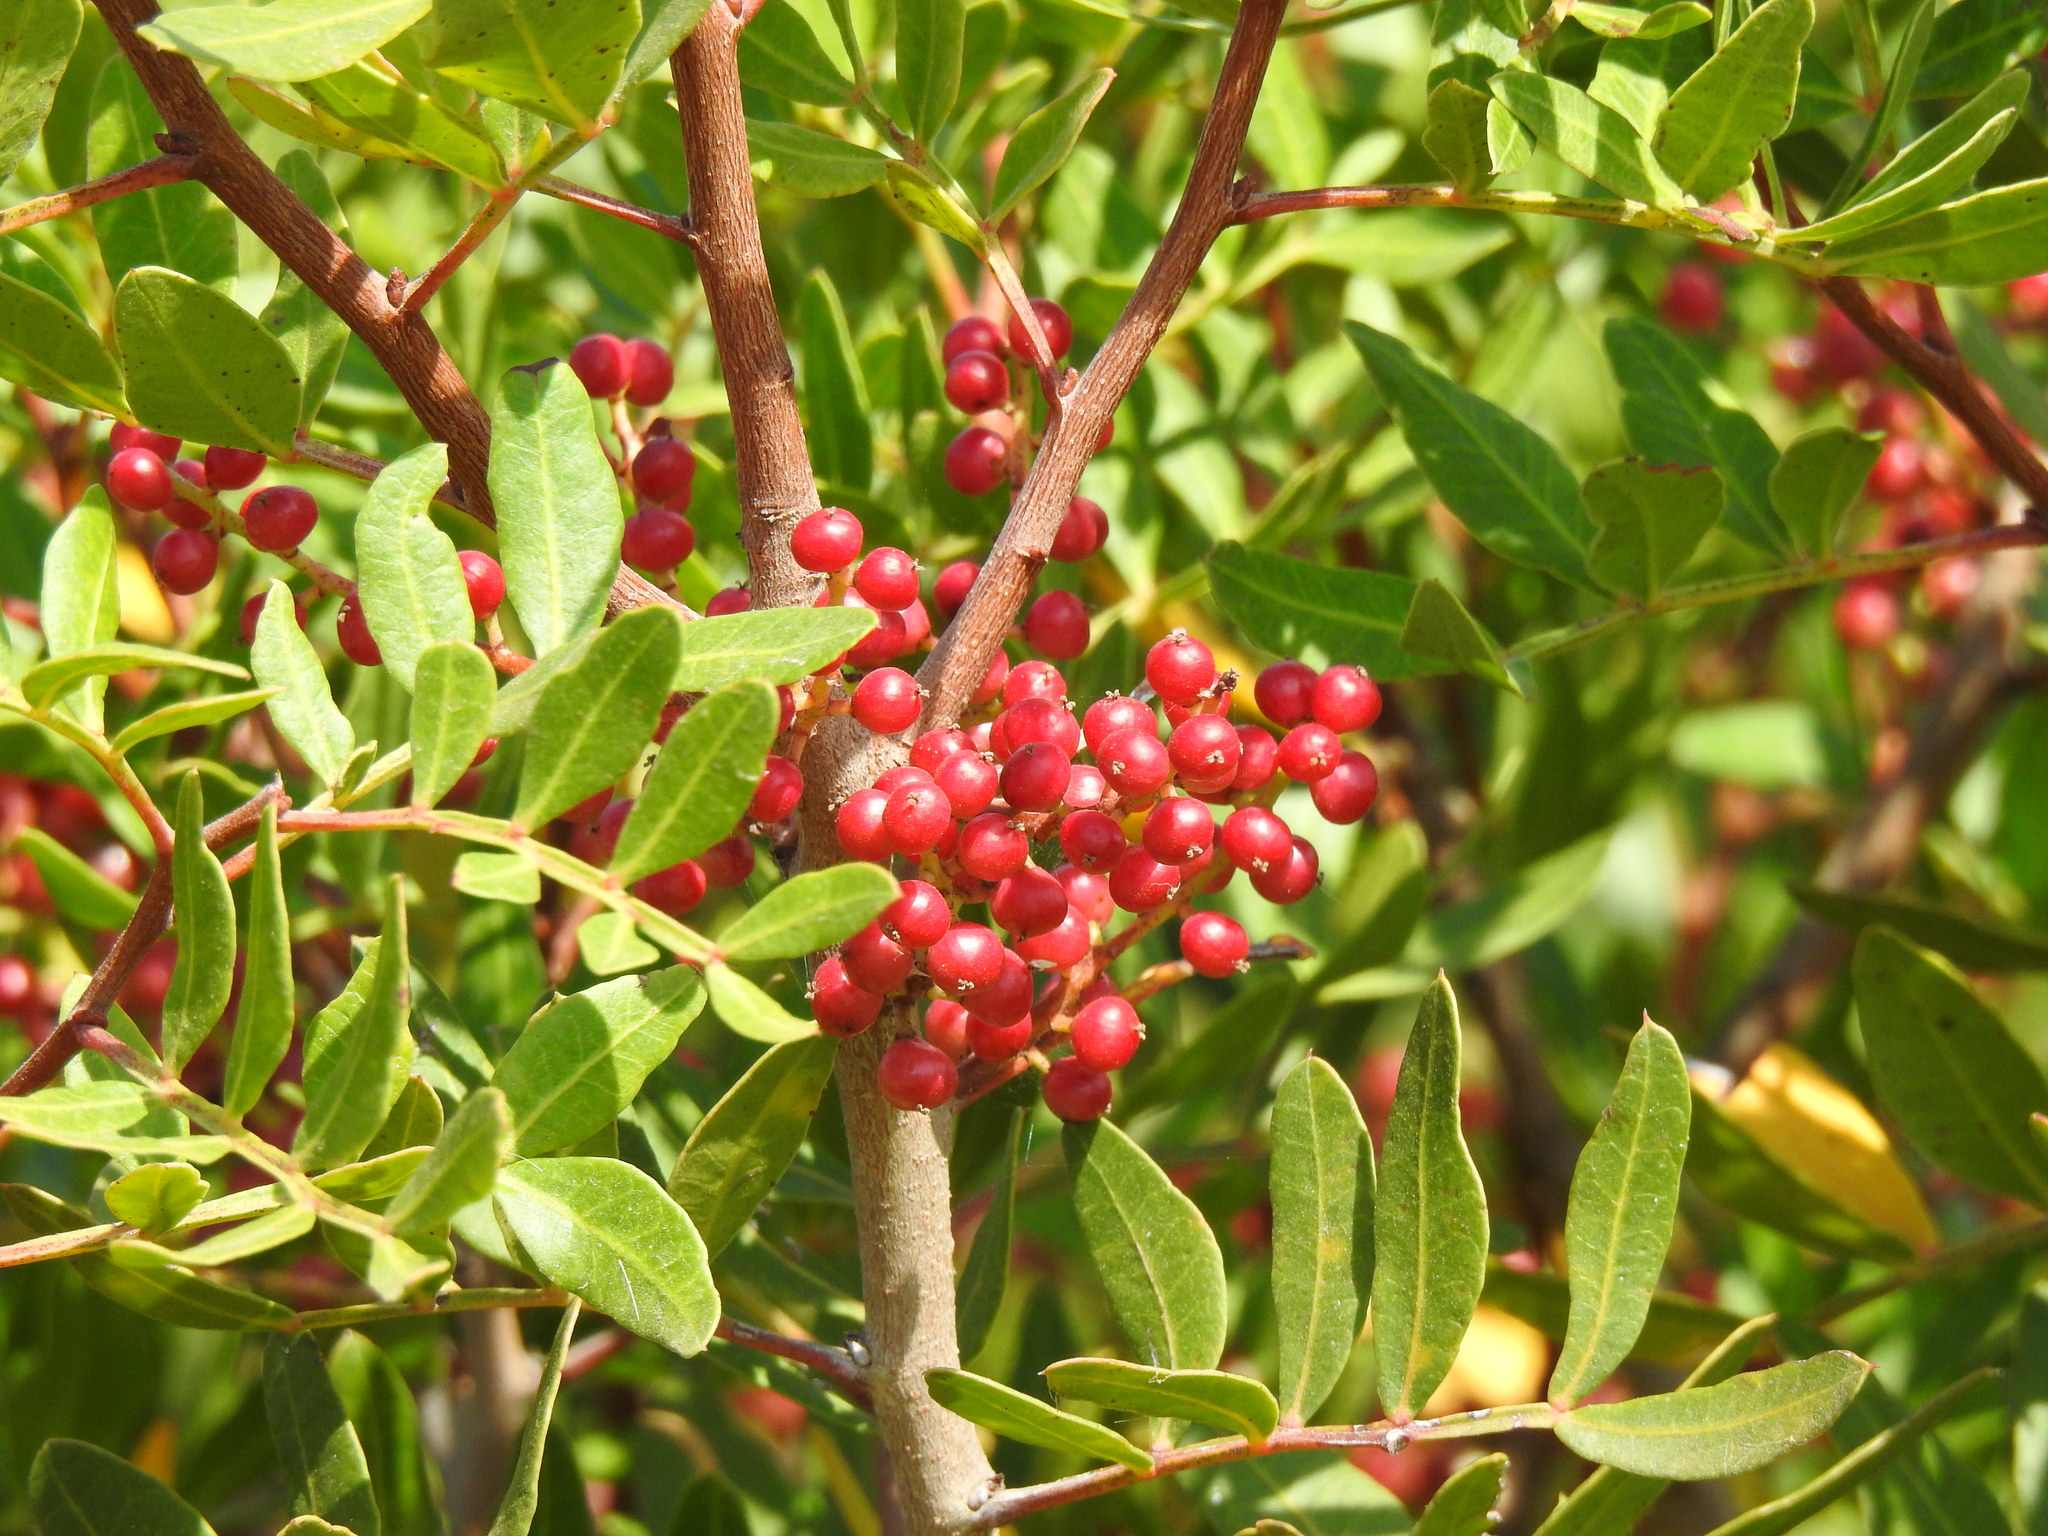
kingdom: Plantae
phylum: Tracheophyta
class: Magnoliopsida
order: Sapindales
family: Anacardiaceae
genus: Pistacia
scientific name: Pistacia lentiscus
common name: Lentisk
